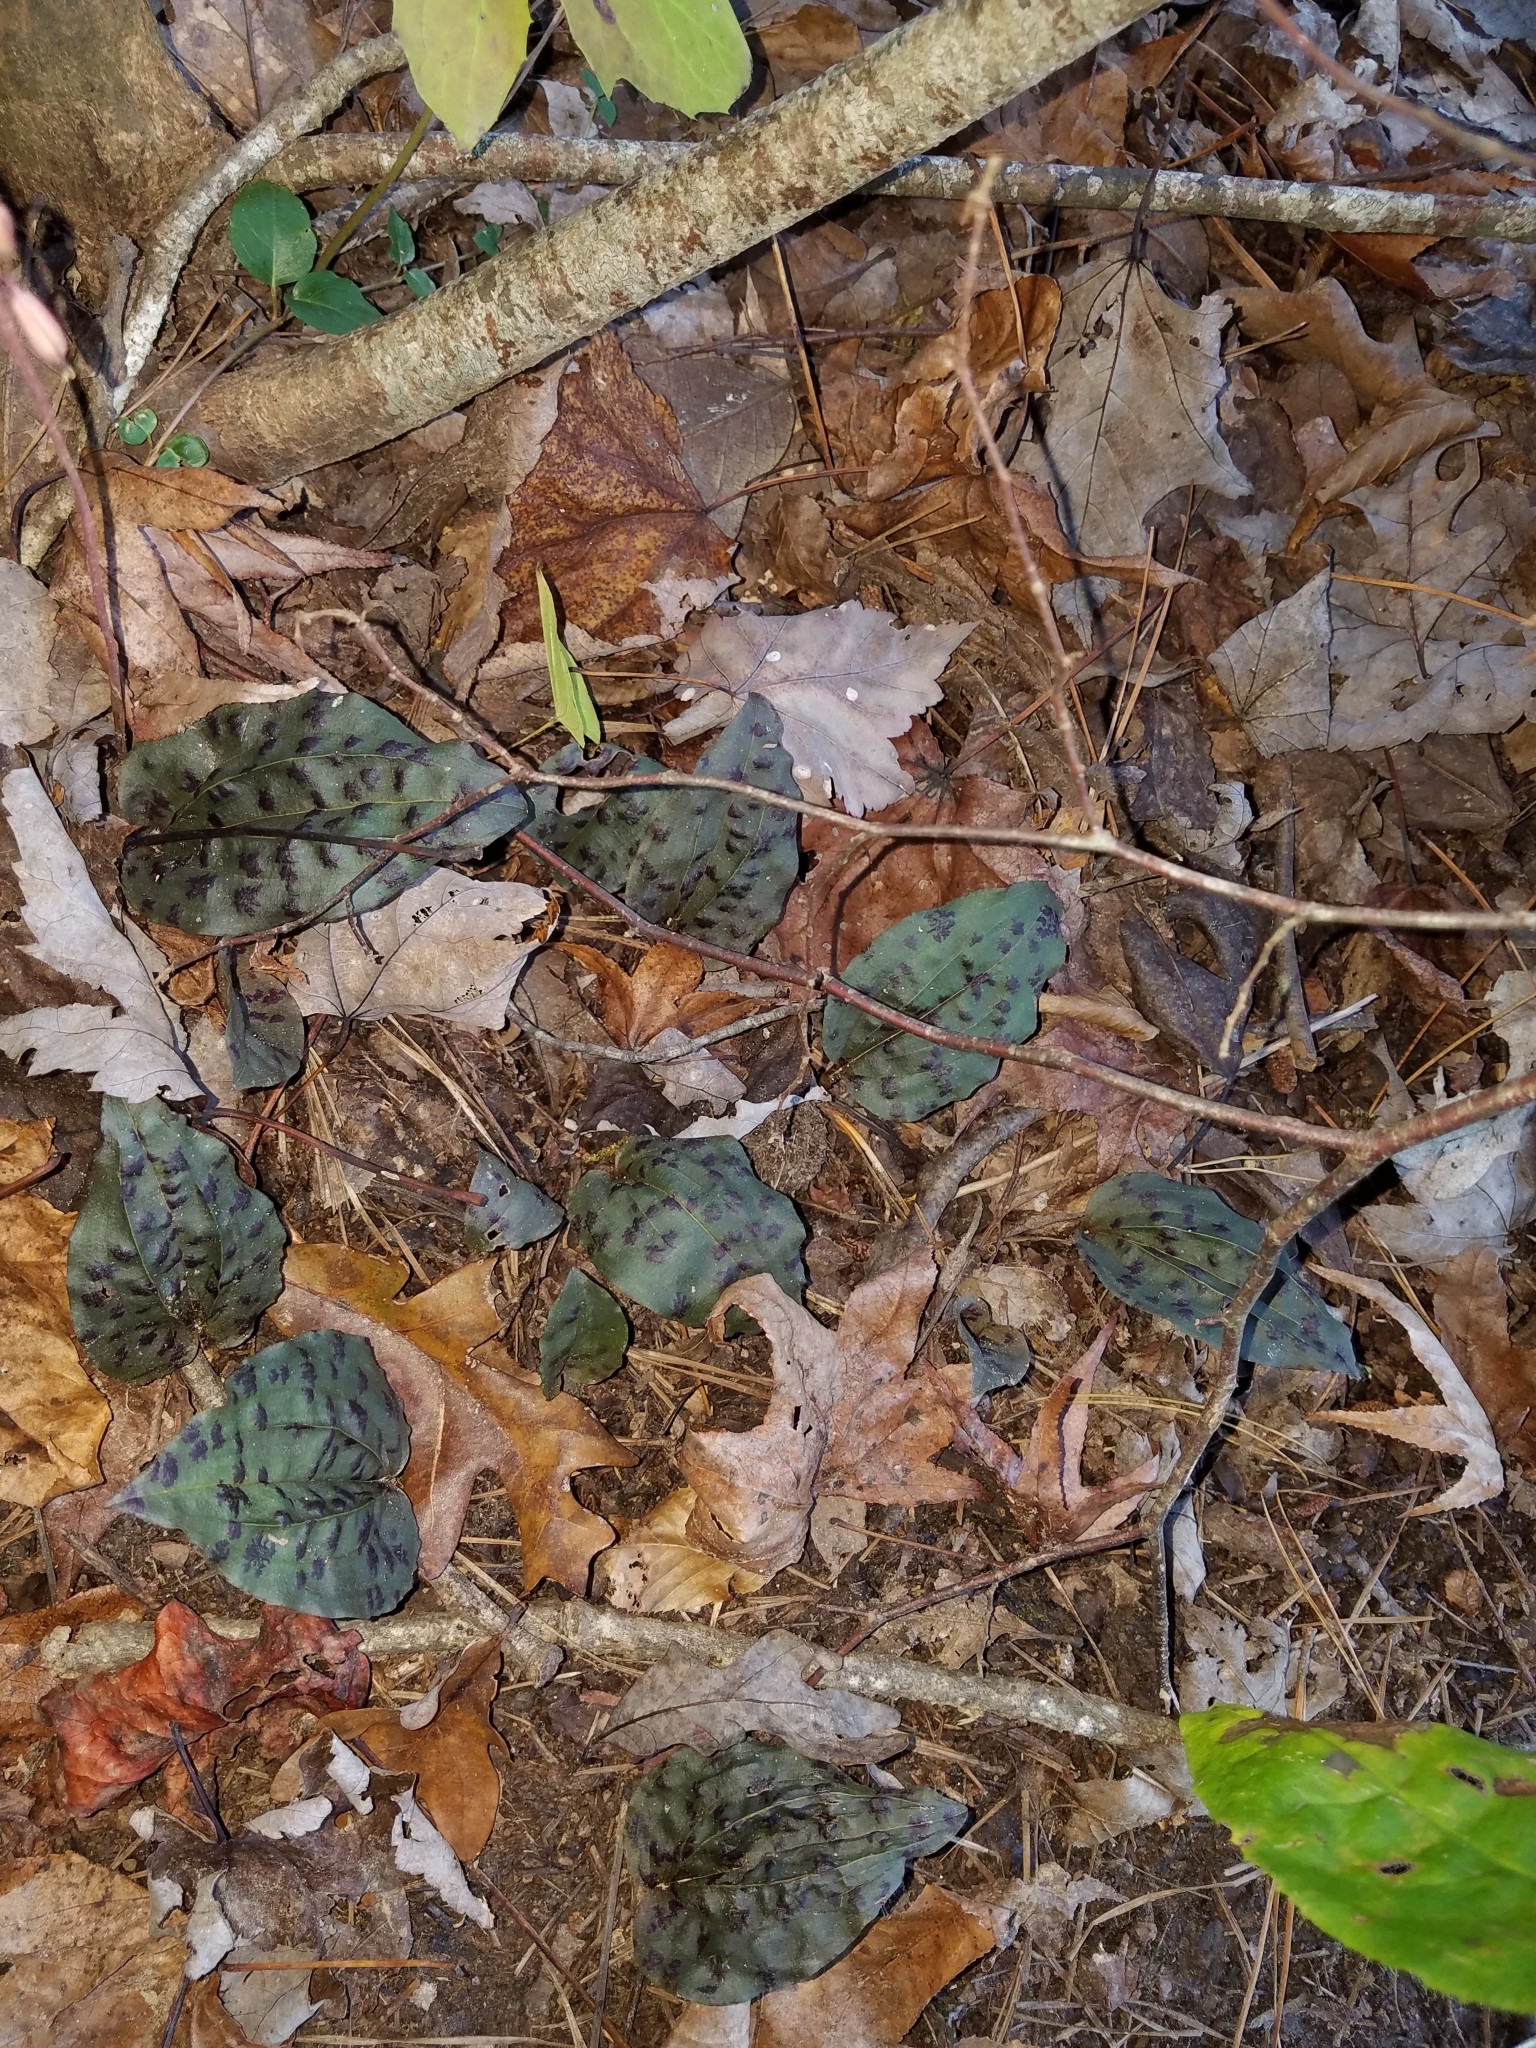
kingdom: Plantae
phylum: Tracheophyta
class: Liliopsida
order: Asparagales
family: Orchidaceae
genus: Tipularia
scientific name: Tipularia discolor
